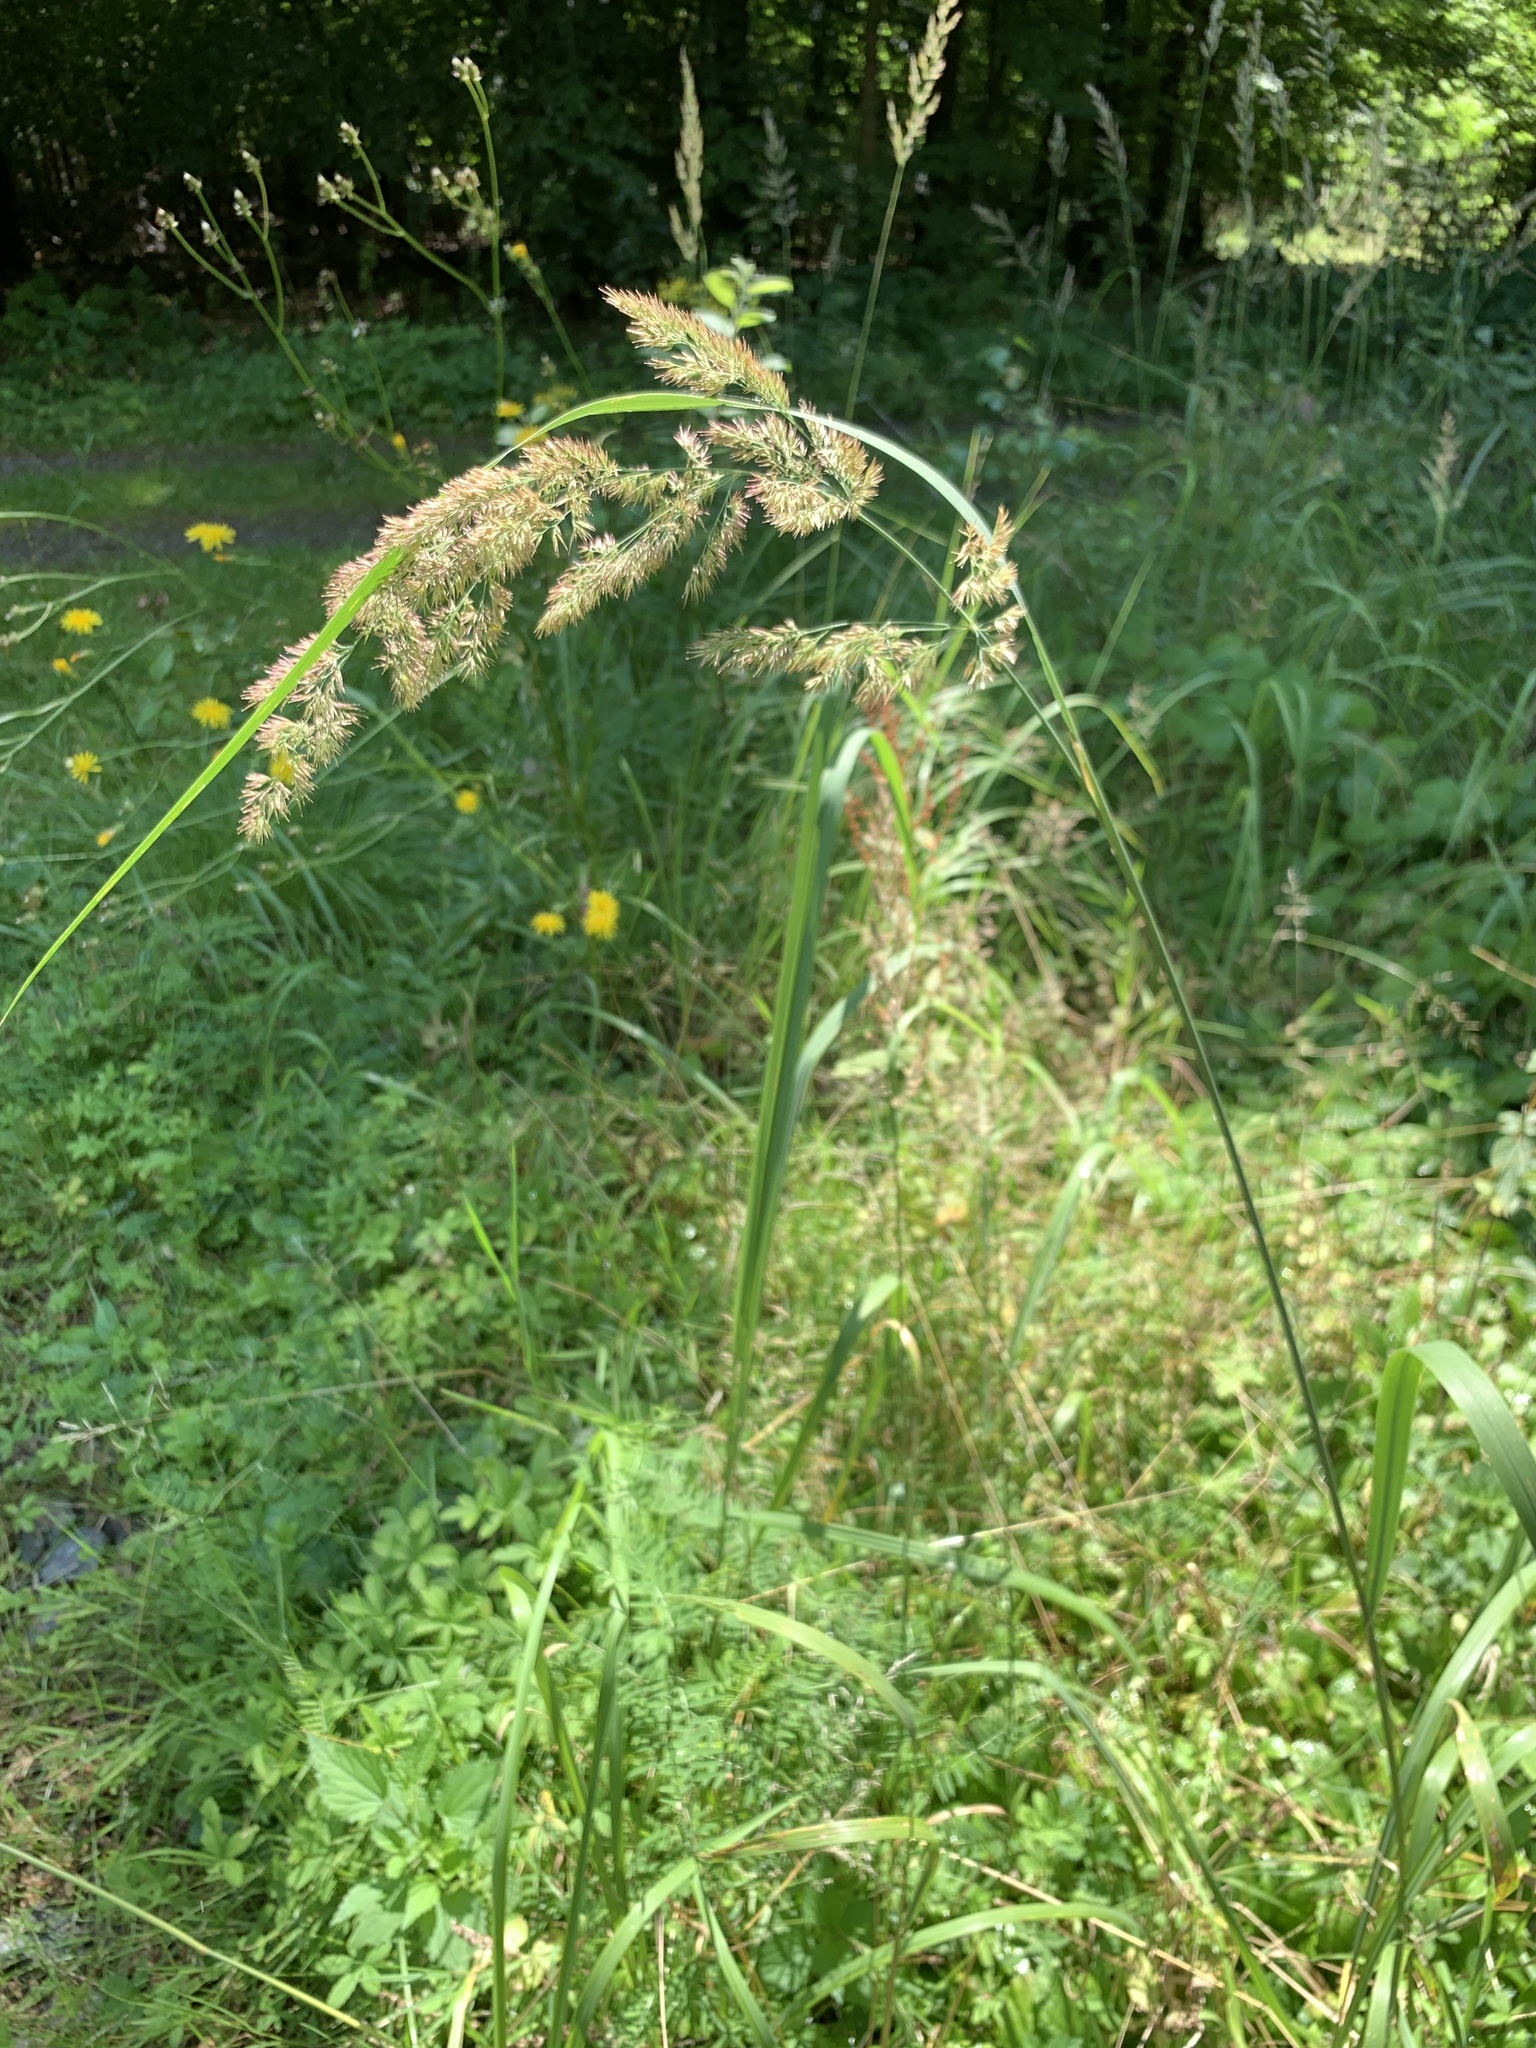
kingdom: Plantae
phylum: Tracheophyta
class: Liliopsida
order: Poales
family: Poaceae
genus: Calamagrostis
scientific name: Calamagrostis epigejos
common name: Wood small-reed
